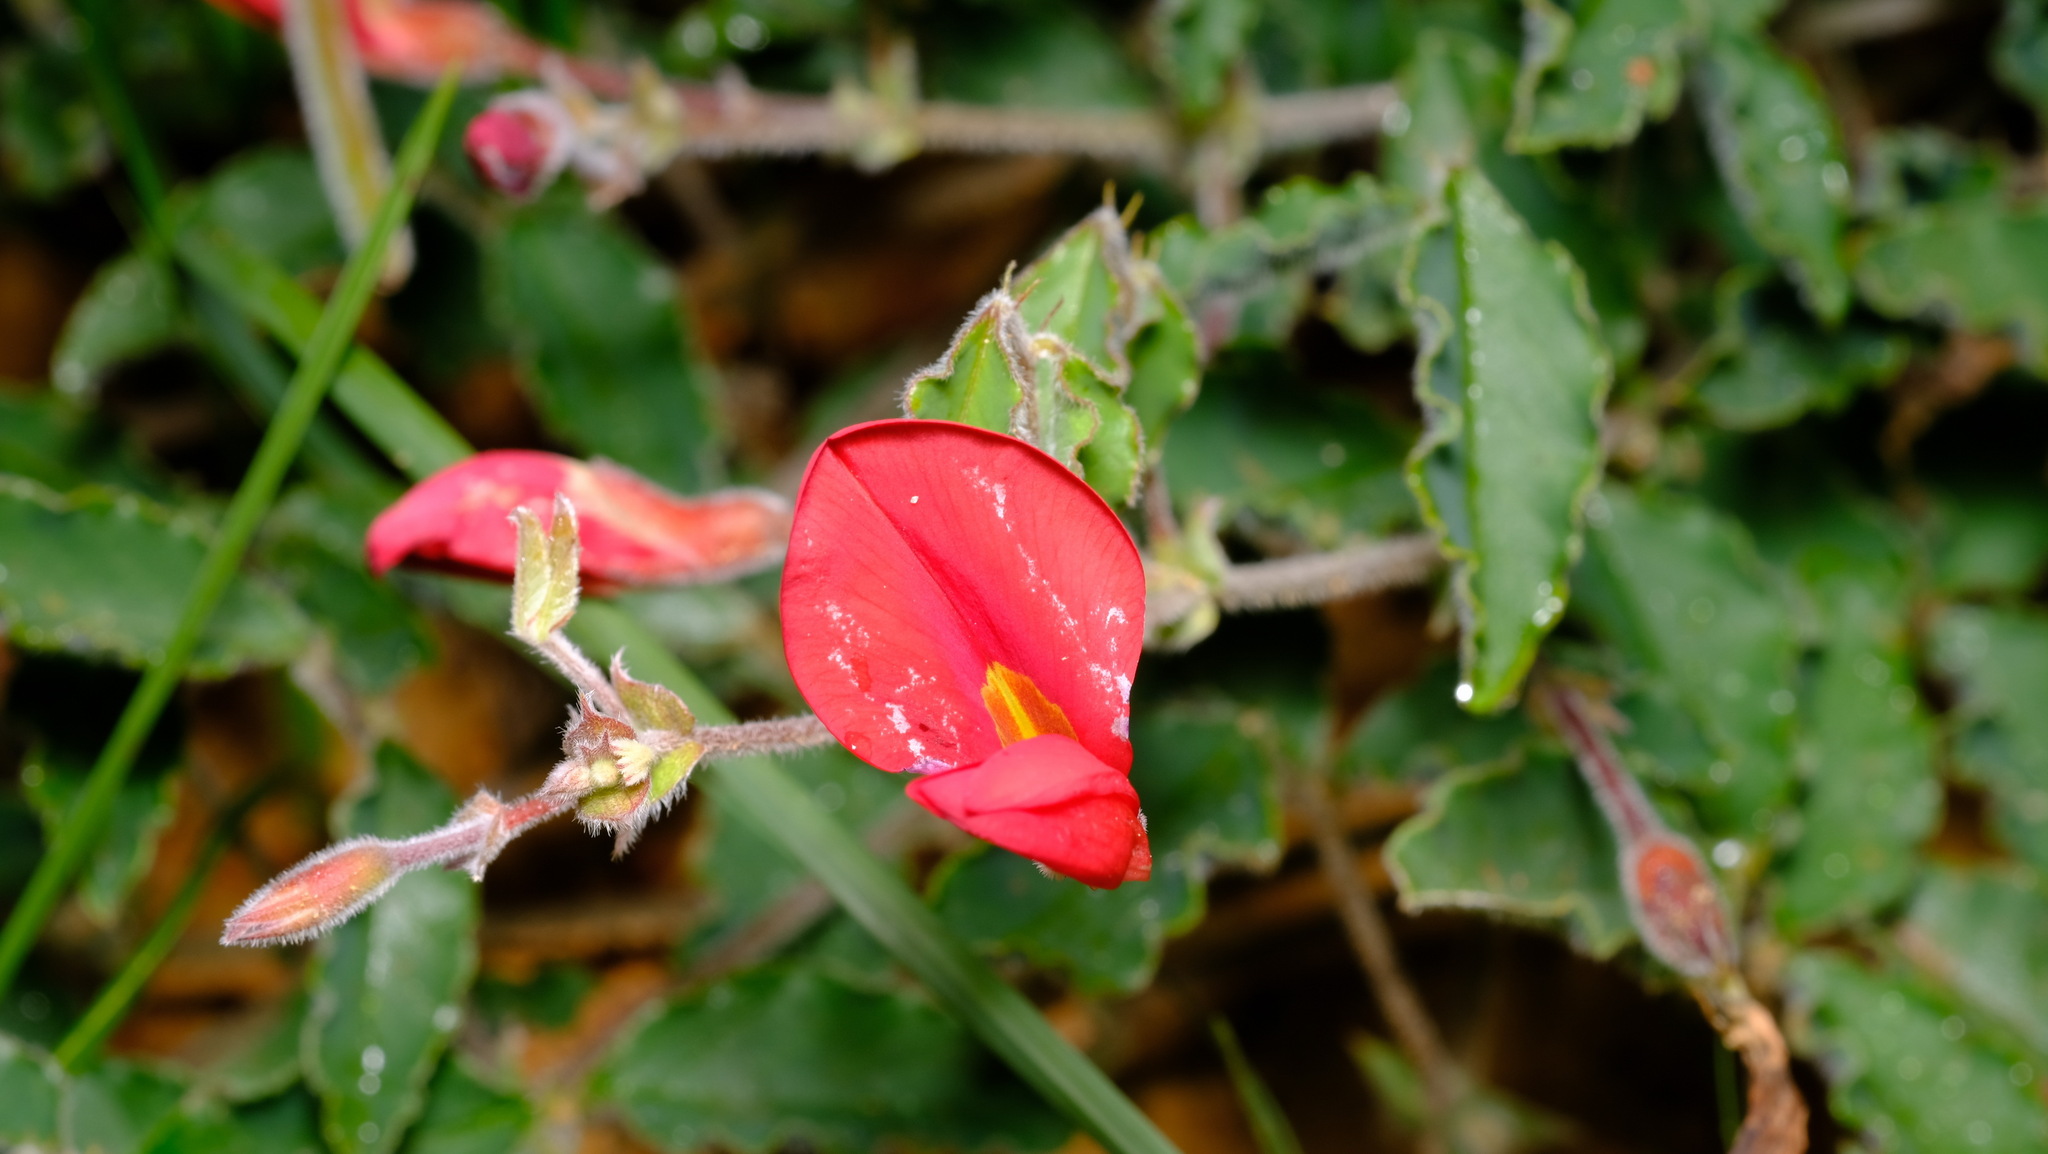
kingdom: Plantae
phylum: Tracheophyta
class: Magnoliopsida
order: Fabales
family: Fabaceae
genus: Kennedia
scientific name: Kennedia prostrata
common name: Running-postman
